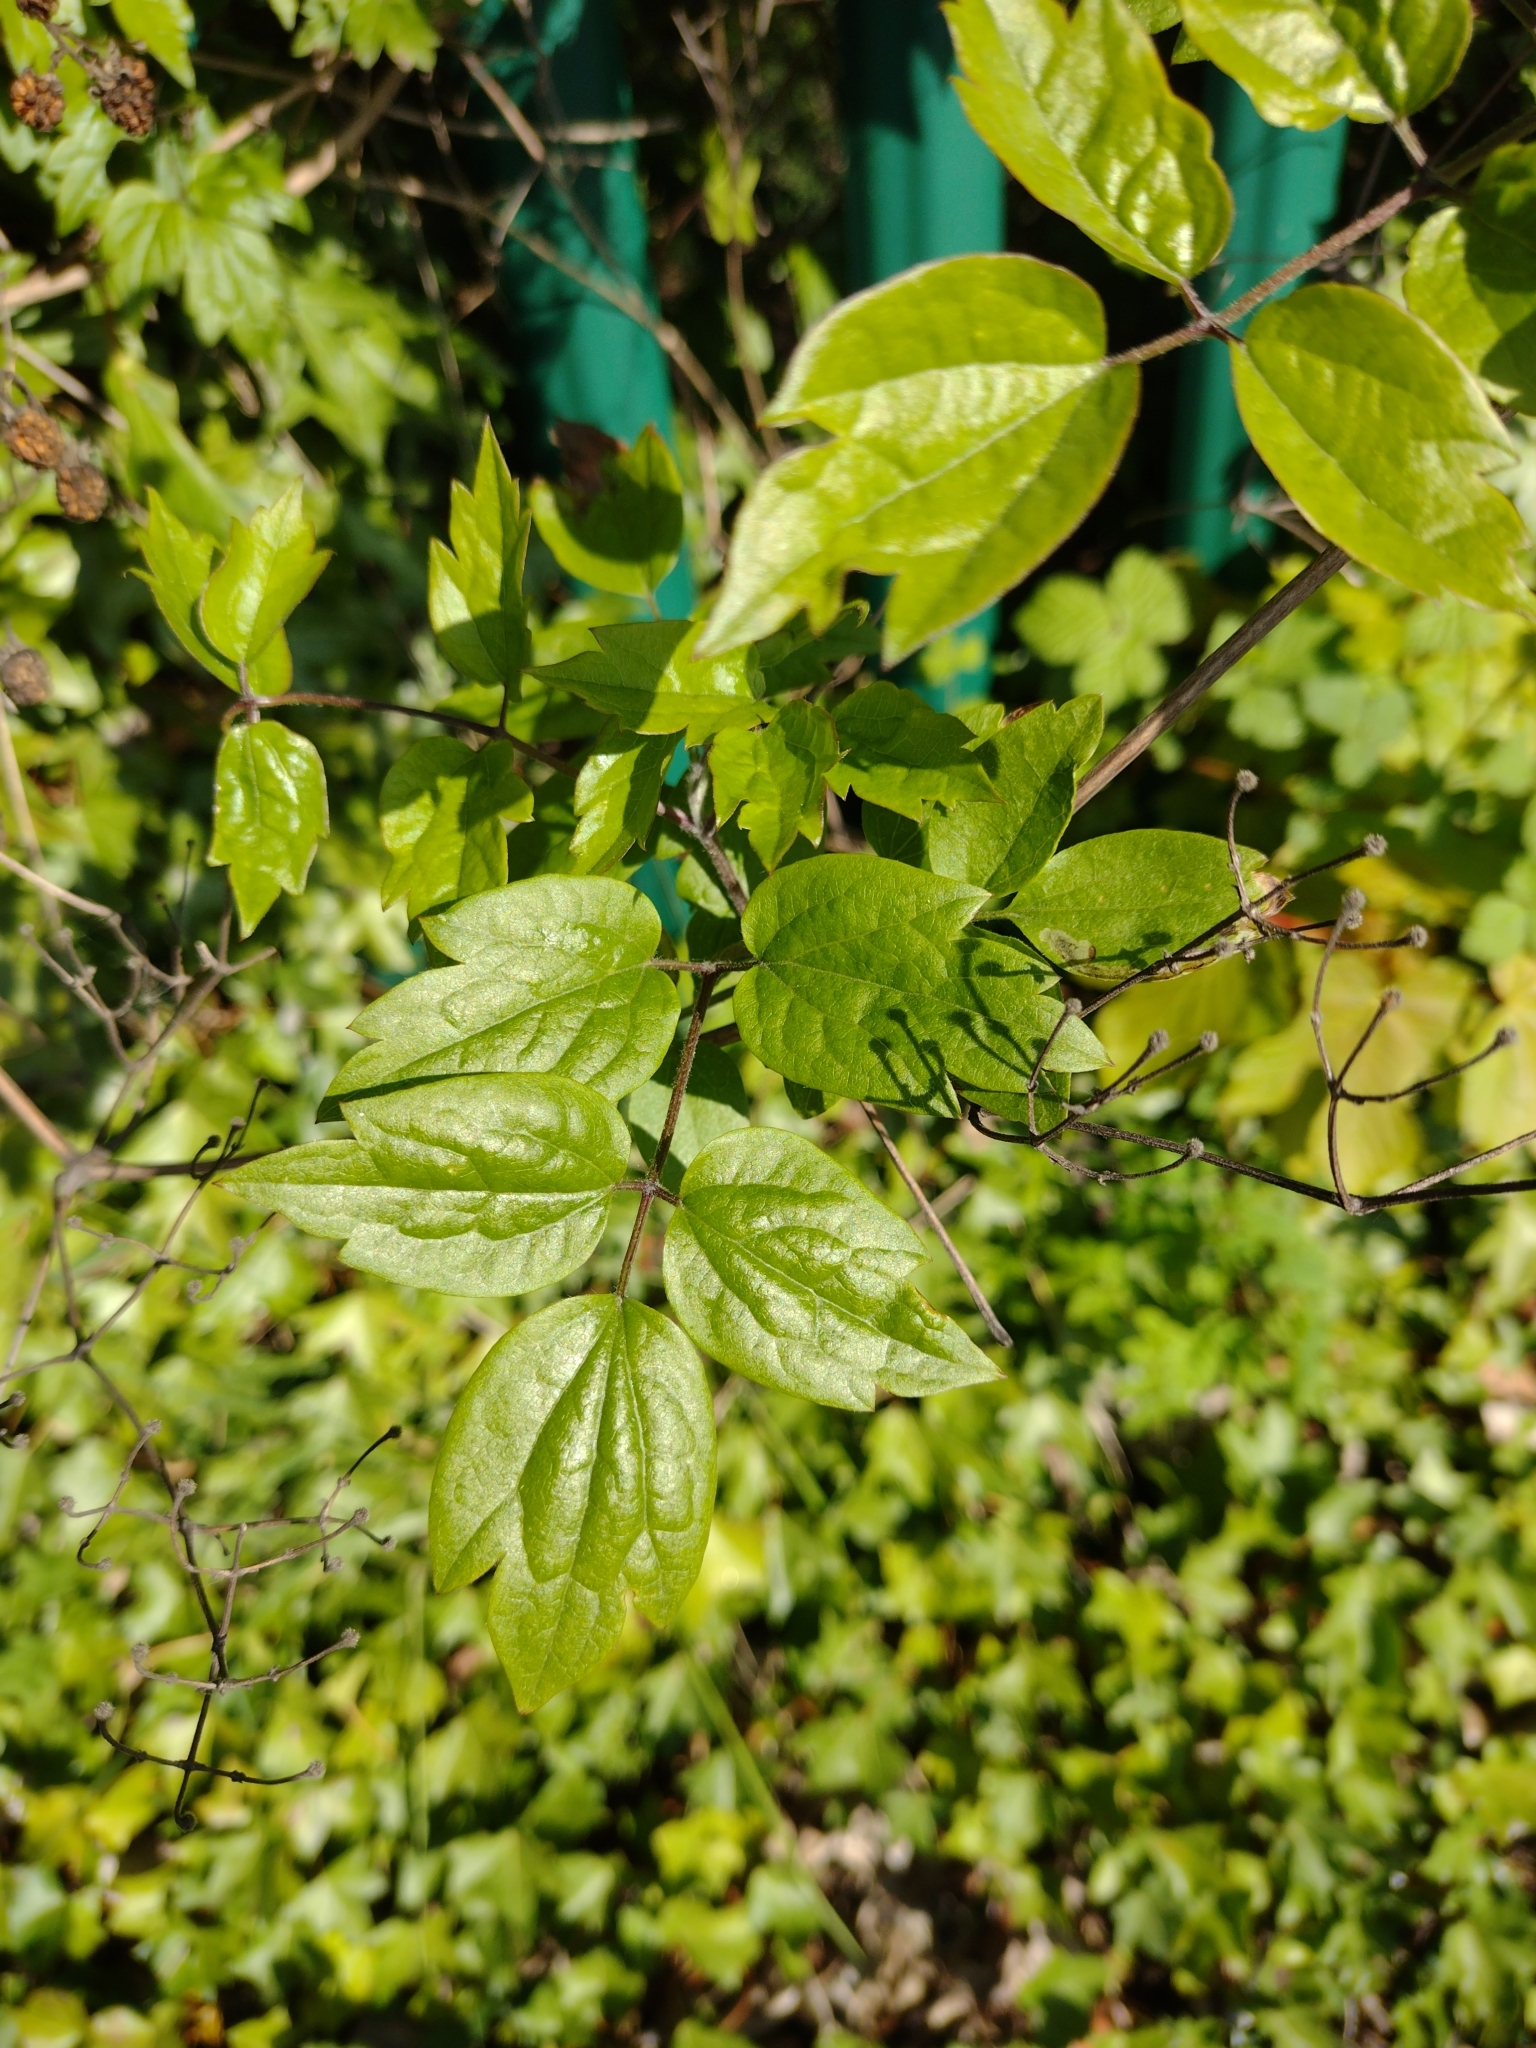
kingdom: Plantae
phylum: Tracheophyta
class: Magnoliopsida
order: Ranunculales
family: Ranunculaceae
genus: Clematis
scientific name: Clematis vitalba
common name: Evergreen clematis
